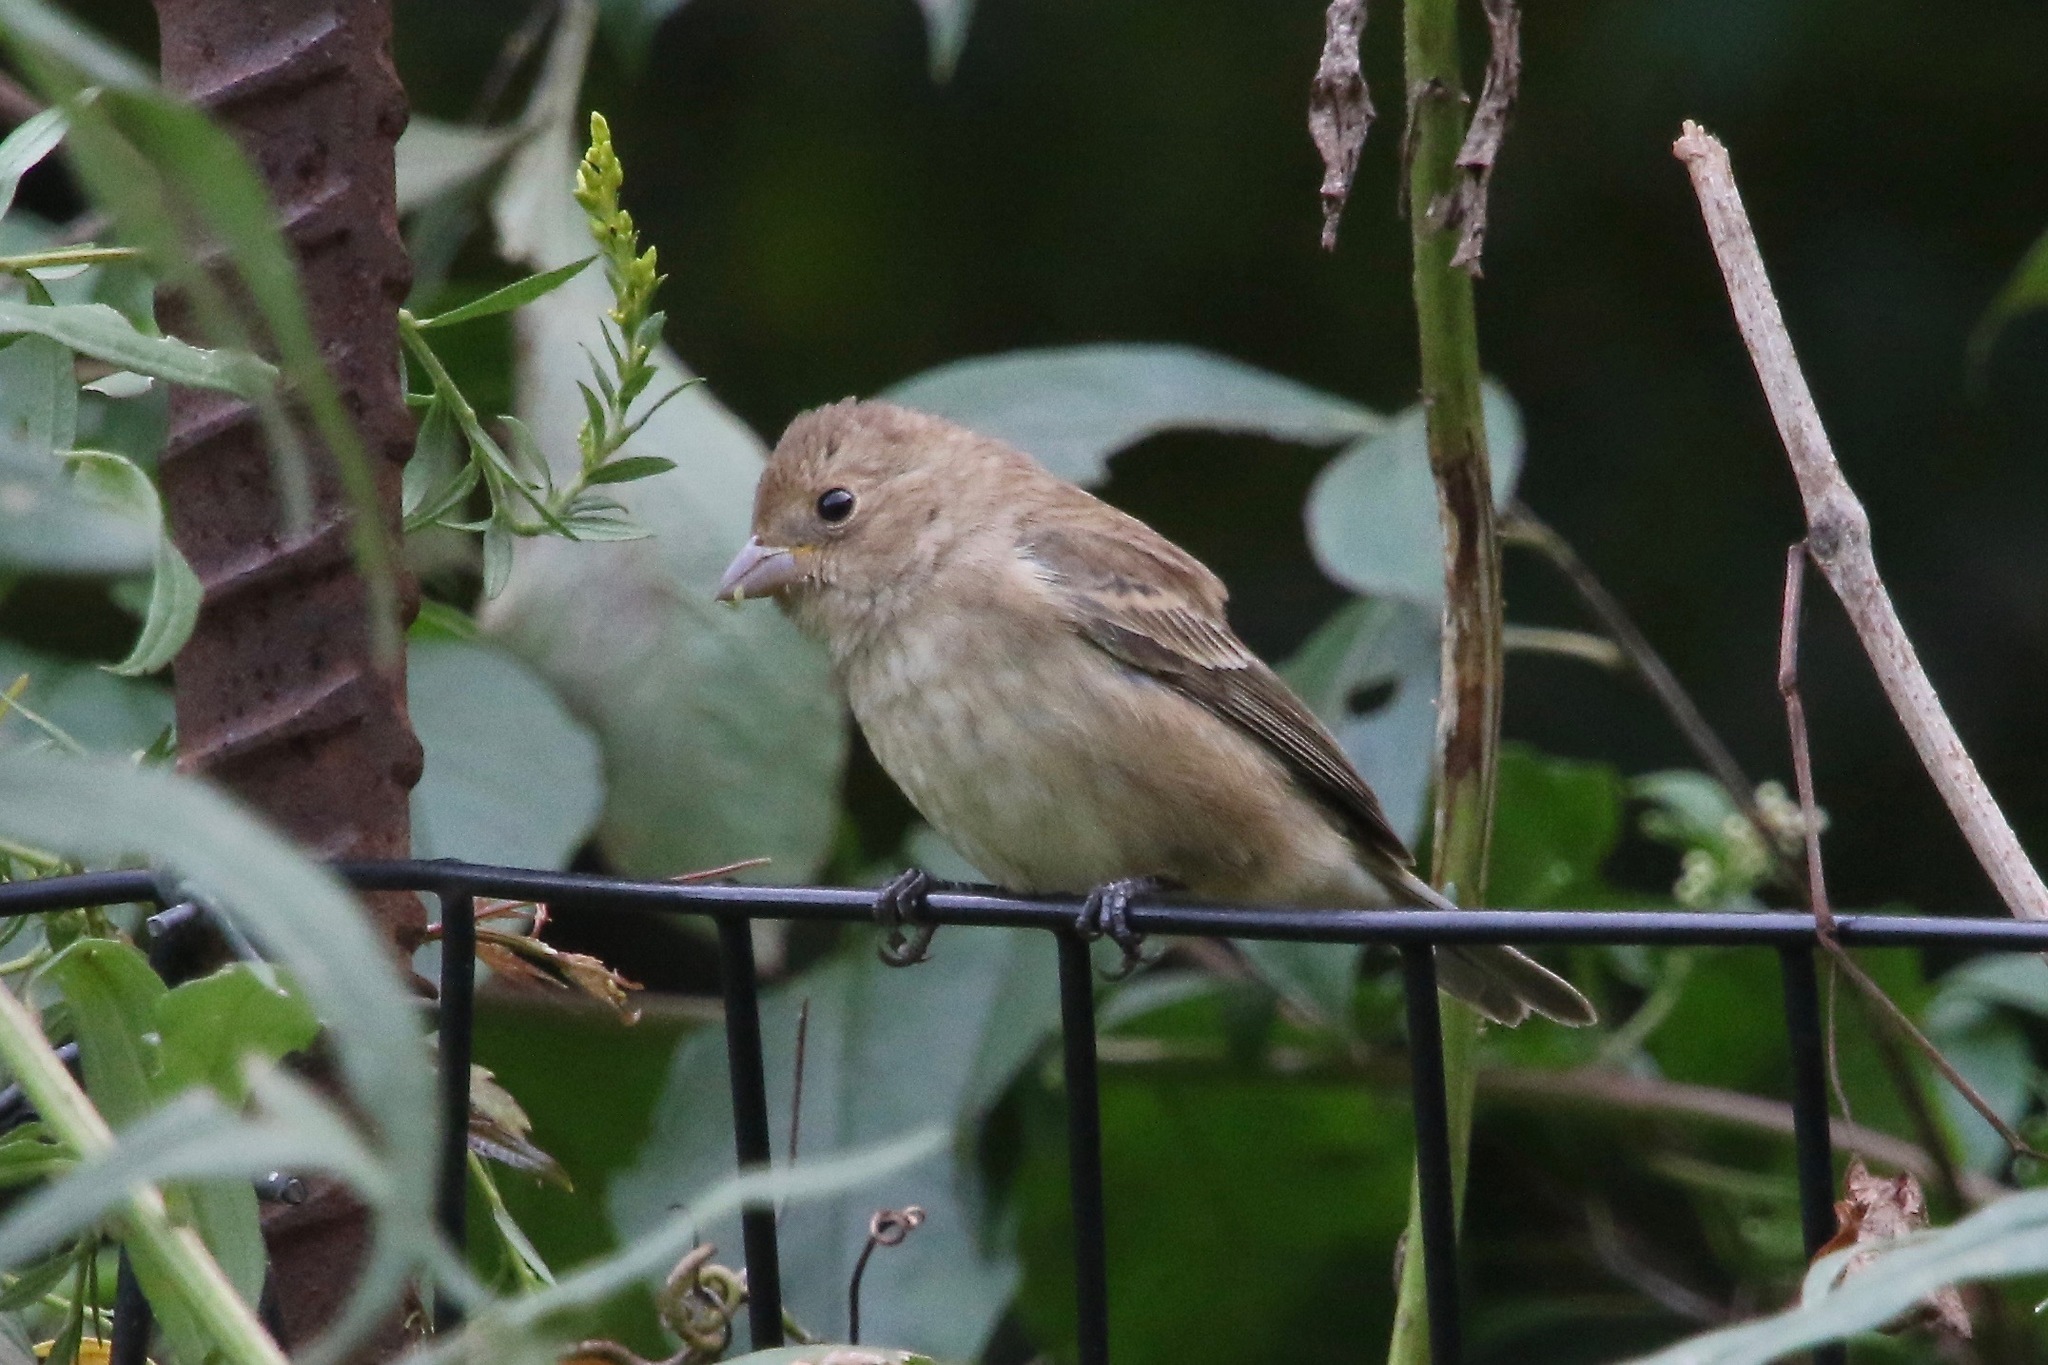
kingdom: Animalia
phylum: Chordata
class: Aves
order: Passeriformes
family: Cardinalidae
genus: Passerina
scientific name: Passerina cyanea
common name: Indigo bunting
